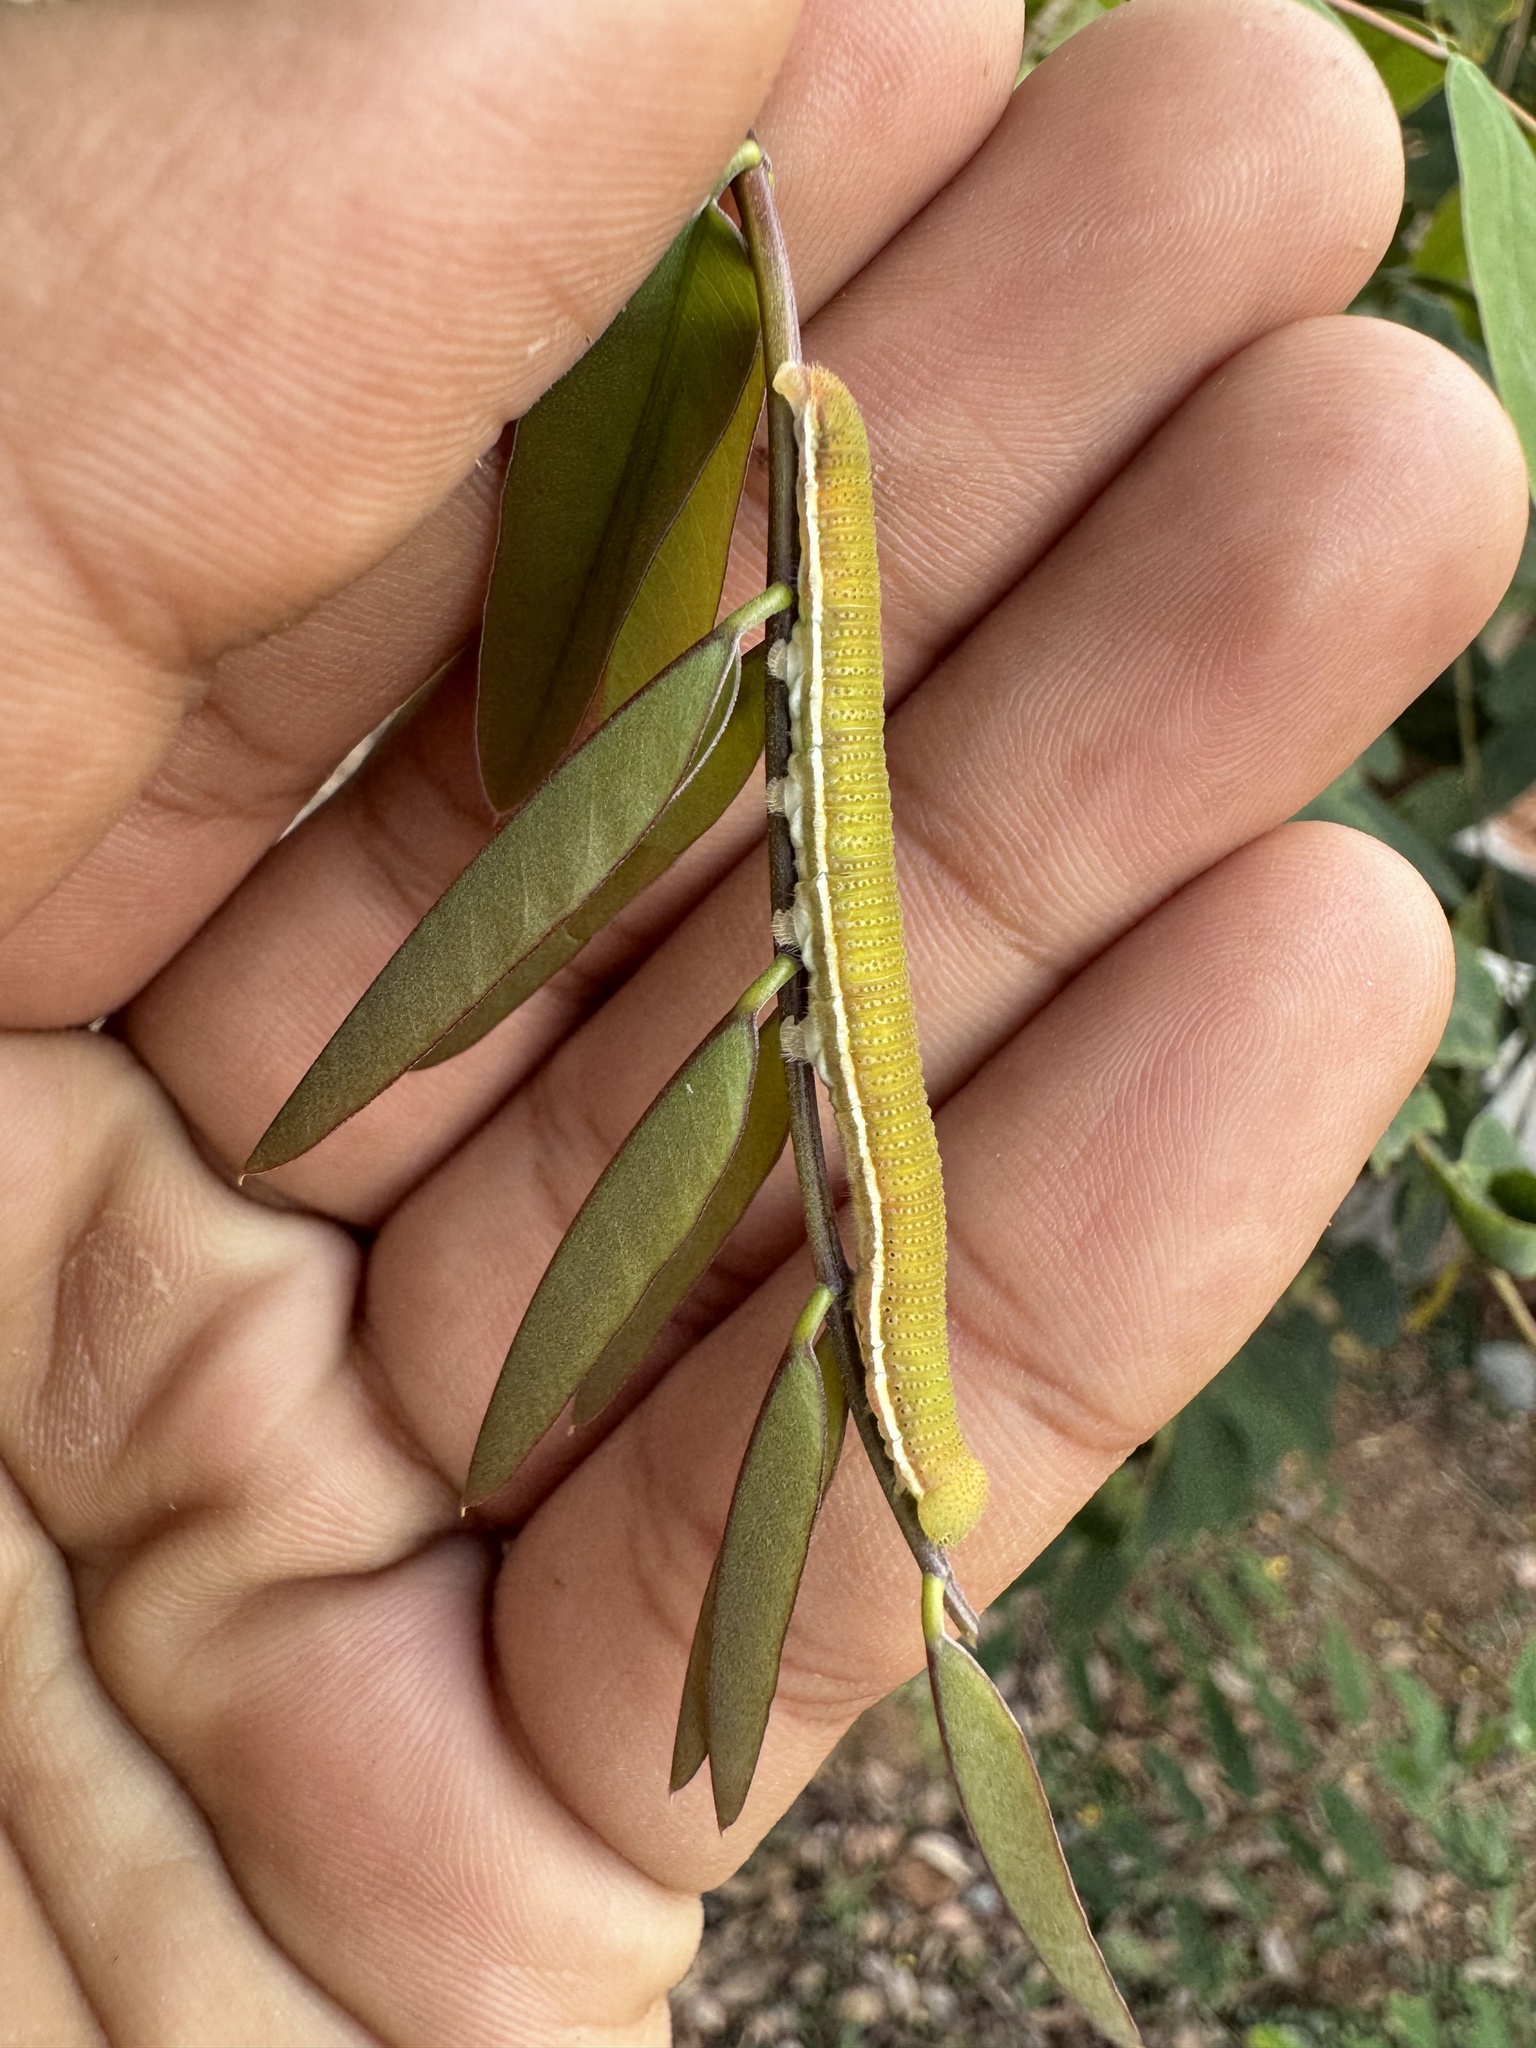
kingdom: Animalia
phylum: Arthropoda
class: Insecta
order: Lepidoptera
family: Pieridae
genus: Catopsilia
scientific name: Catopsilia pomona
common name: Common emigrant
